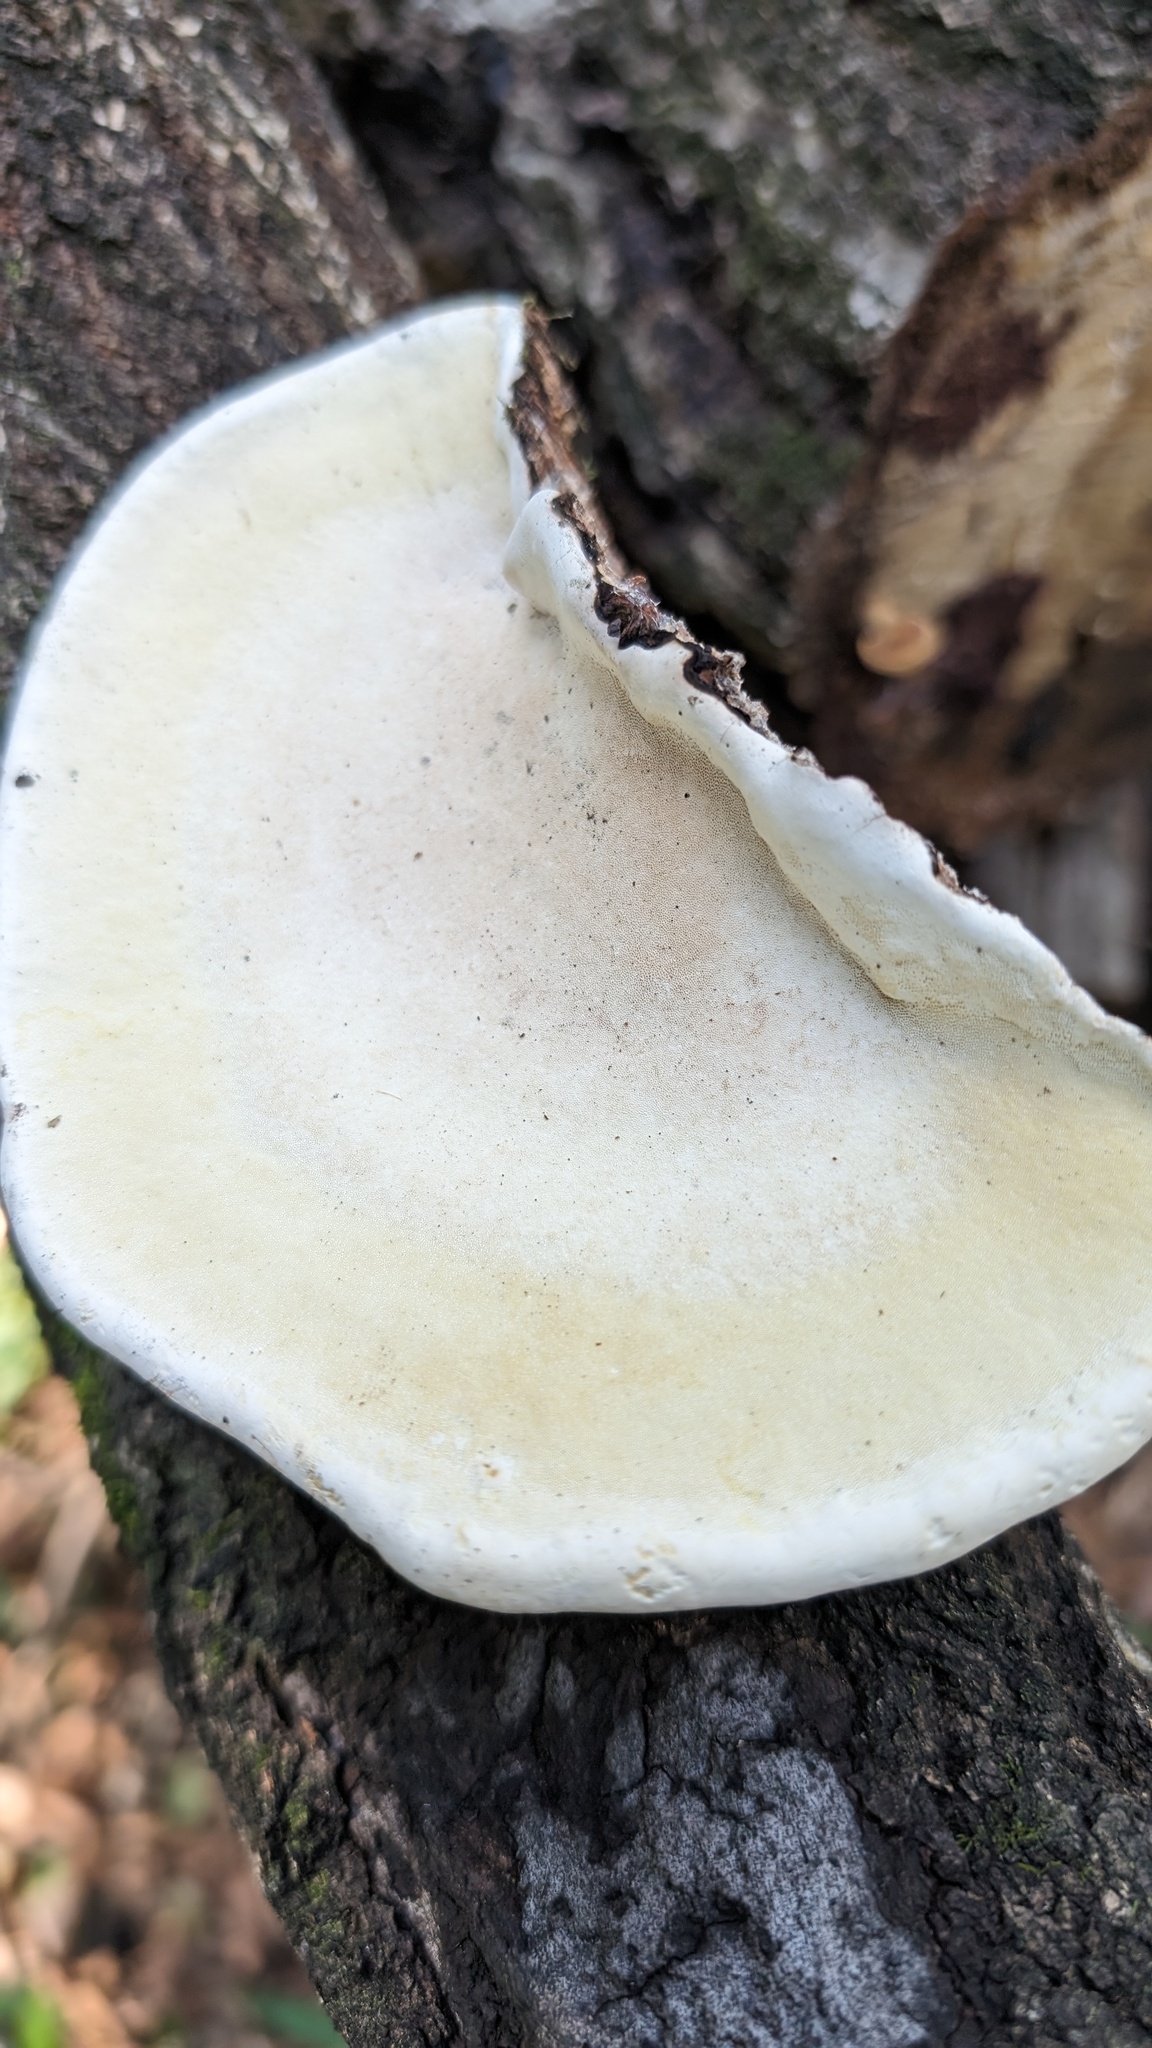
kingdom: Fungi
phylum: Basidiomycota
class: Agaricomycetes
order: Polyporales
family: Fomitopsidaceae
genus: Fomitopsis
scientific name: Fomitopsis pinicola
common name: Red-belted bracket
